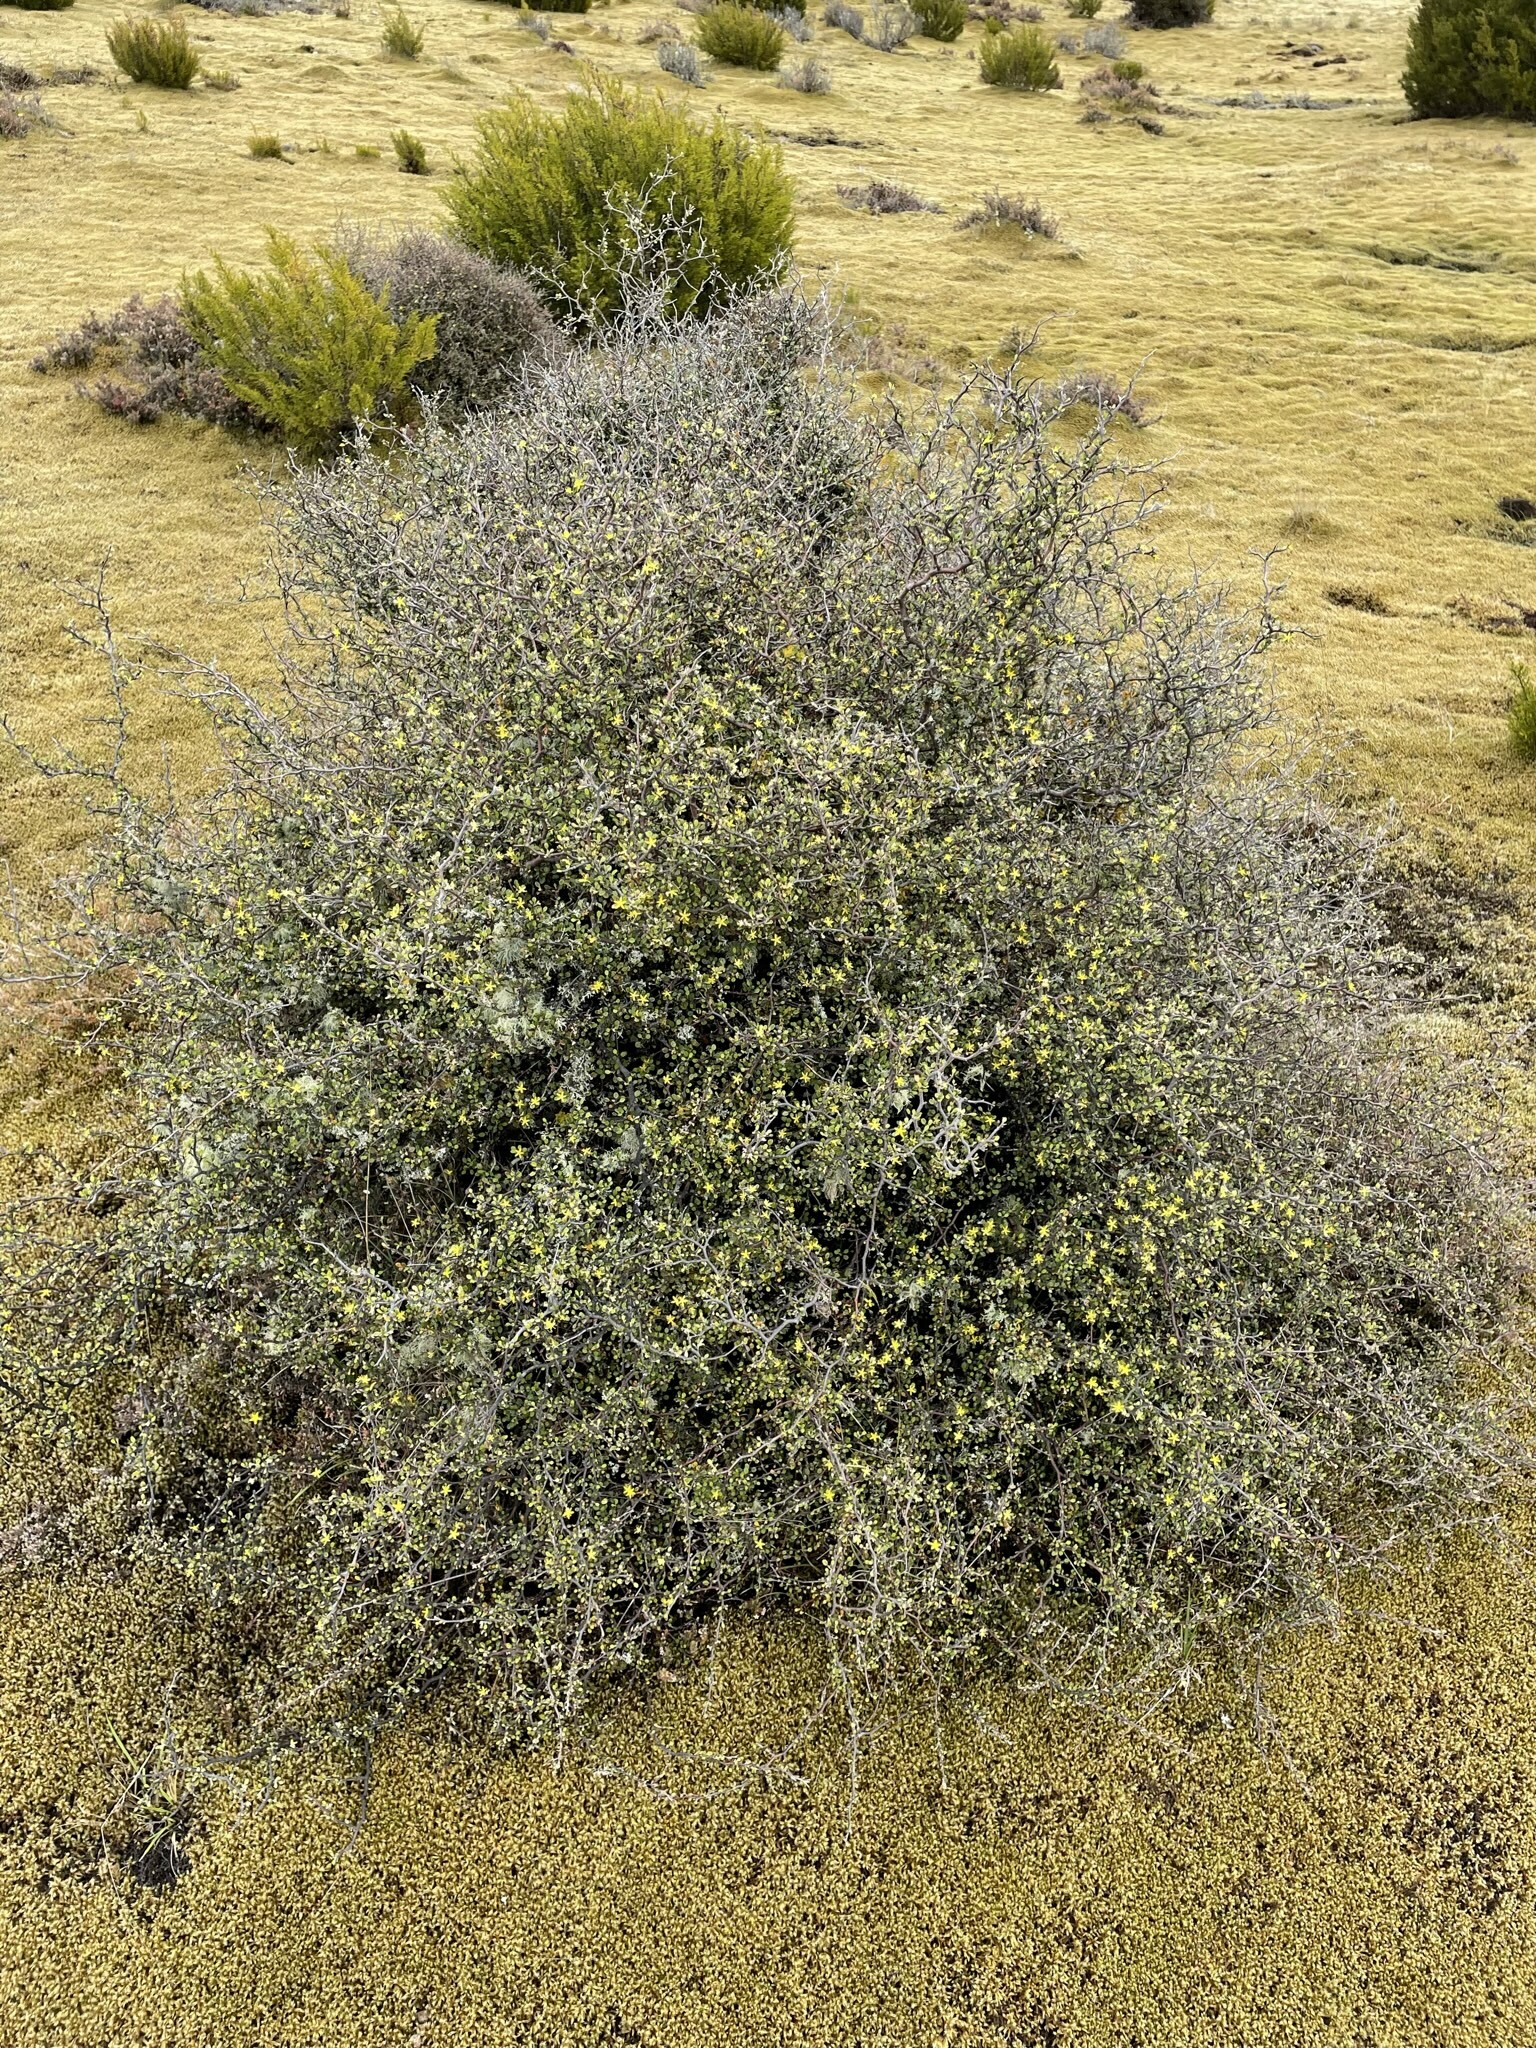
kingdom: Plantae
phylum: Tracheophyta
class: Magnoliopsida
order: Asterales
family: Argophyllaceae
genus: Corokia
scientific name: Corokia cotoneaster
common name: Wire nettingbush
